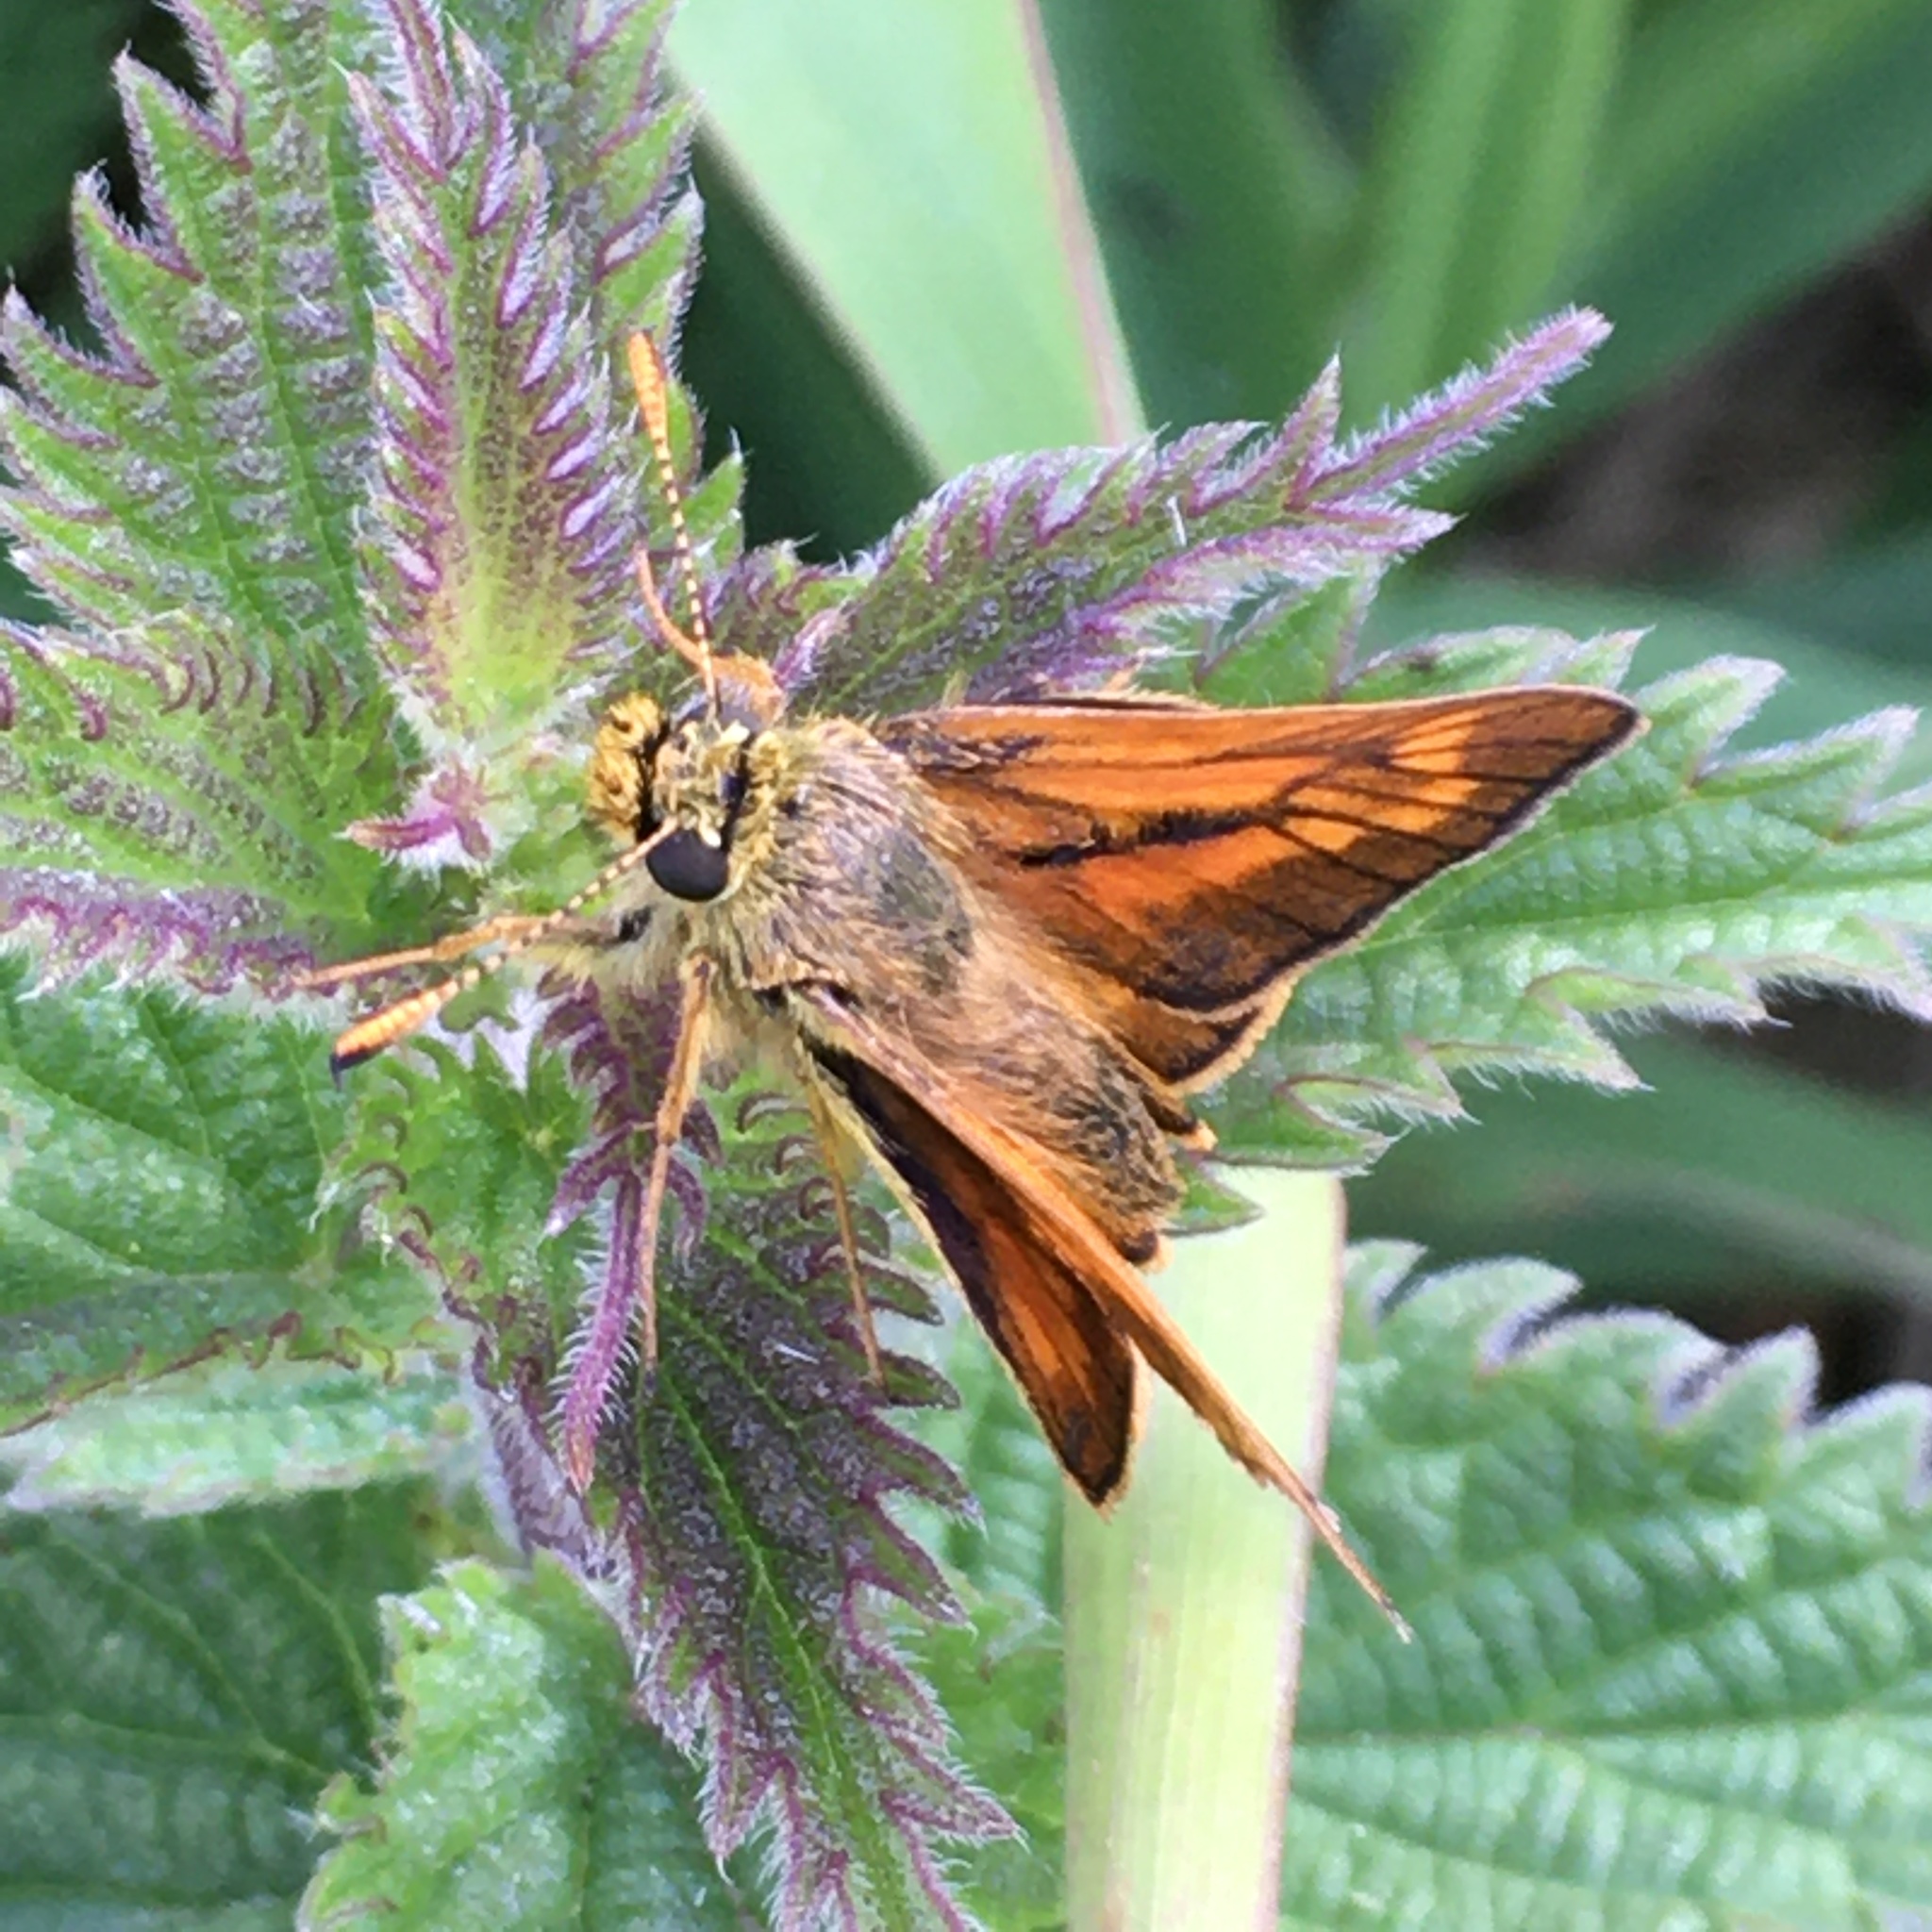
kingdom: Animalia
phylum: Arthropoda
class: Insecta
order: Lepidoptera
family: Hesperiidae
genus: Ochlodes
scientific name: Ochlodes venata
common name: Large skipper
